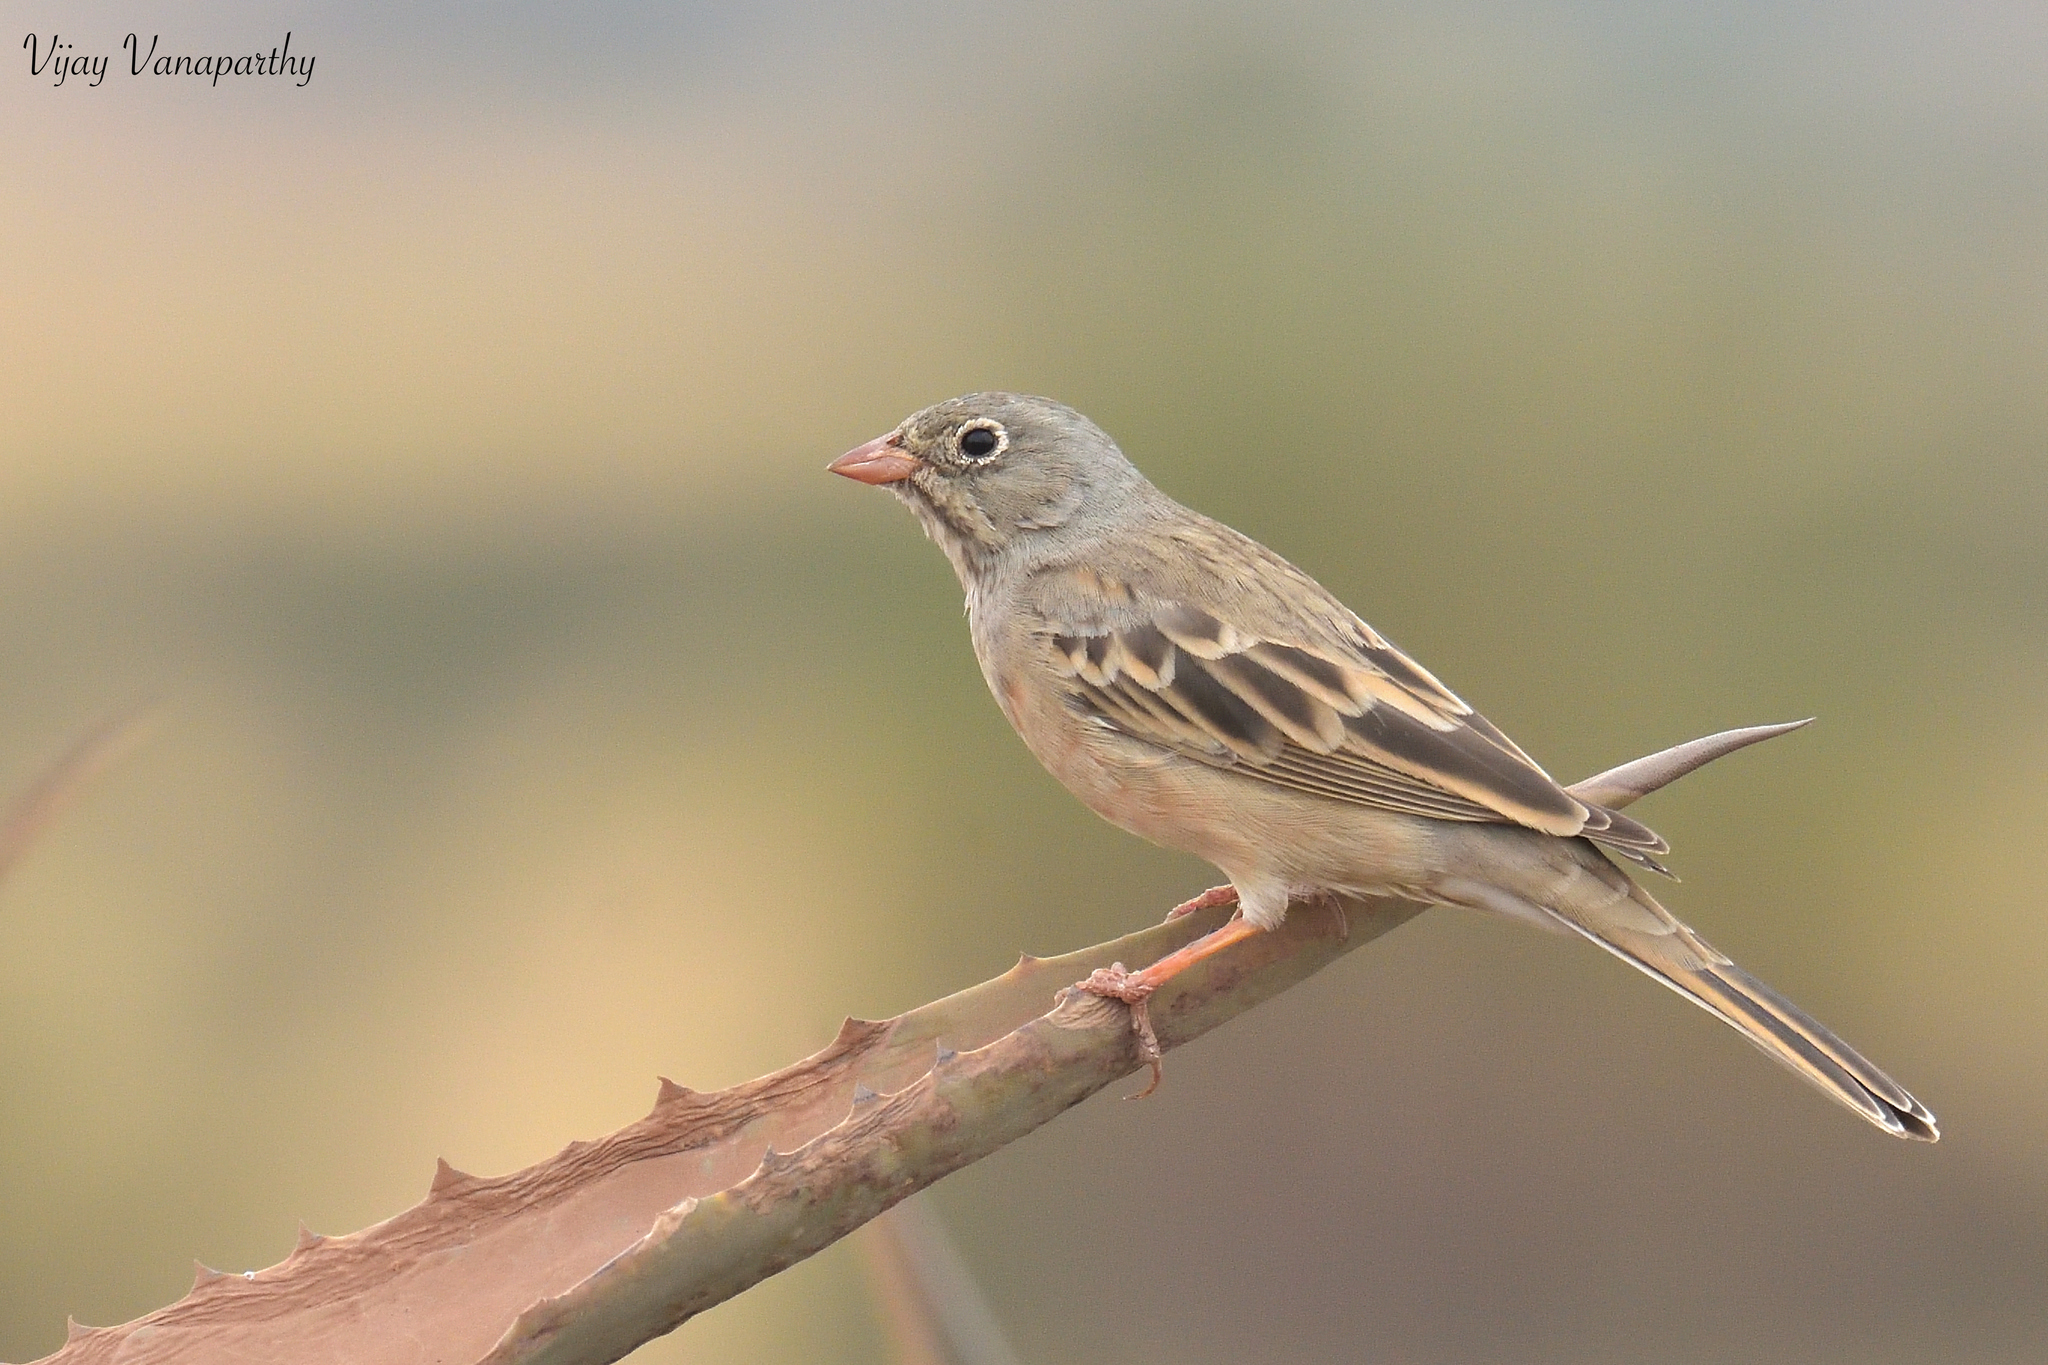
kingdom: Animalia
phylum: Chordata
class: Aves
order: Passeriformes
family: Emberizidae
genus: Emberiza
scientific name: Emberiza buchanani
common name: Grey-necked bunting
